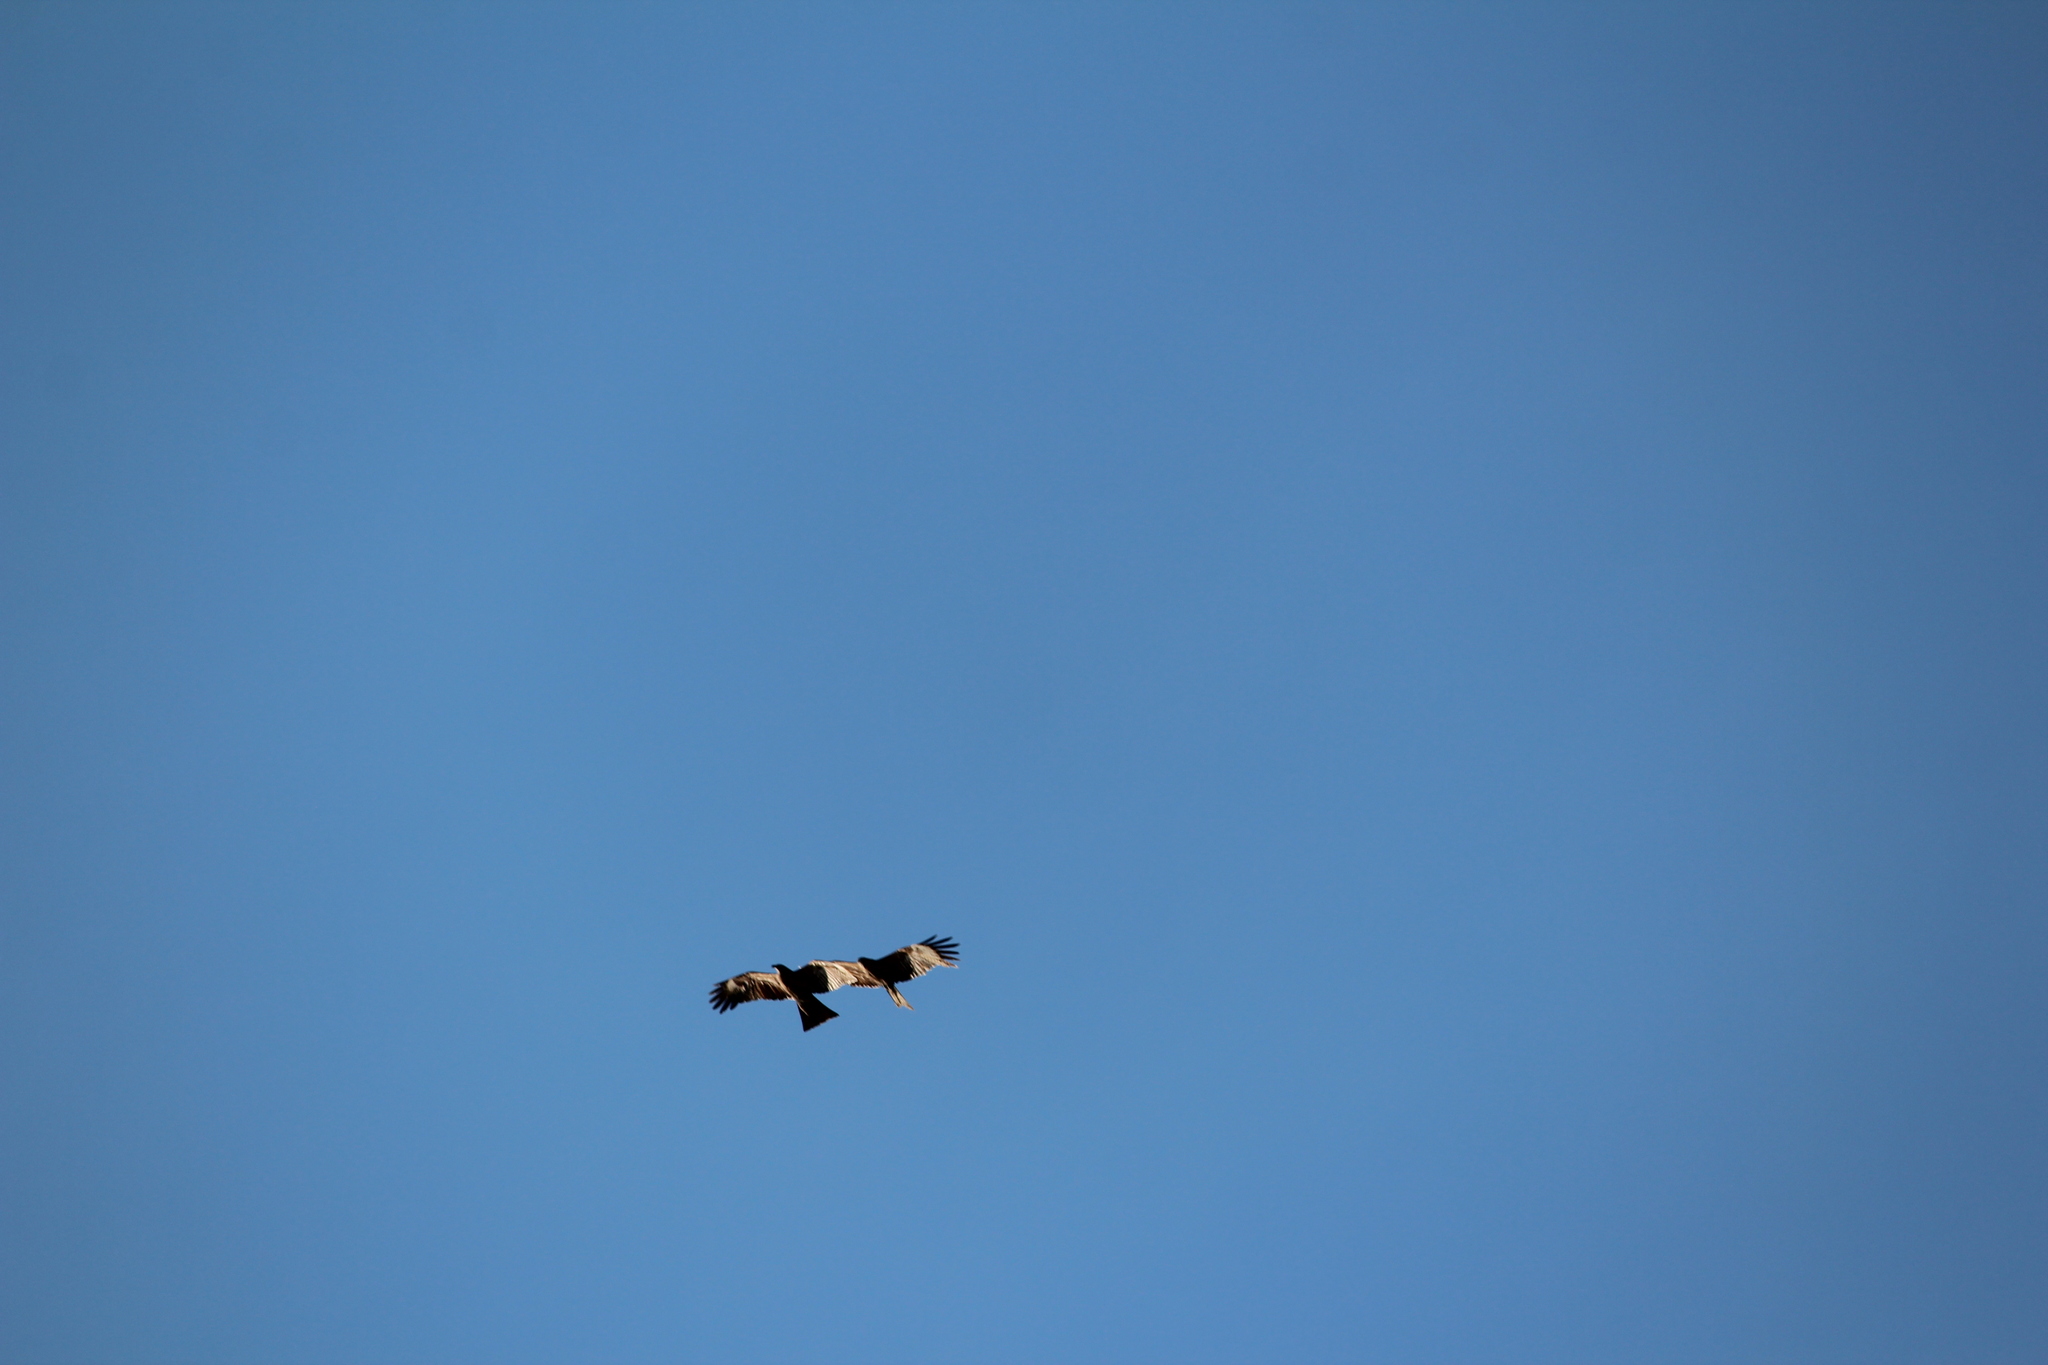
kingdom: Animalia
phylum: Chordata
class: Aves
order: Accipitriformes
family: Accipitridae
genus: Milvus
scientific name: Milvus migrans
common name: Black kite
